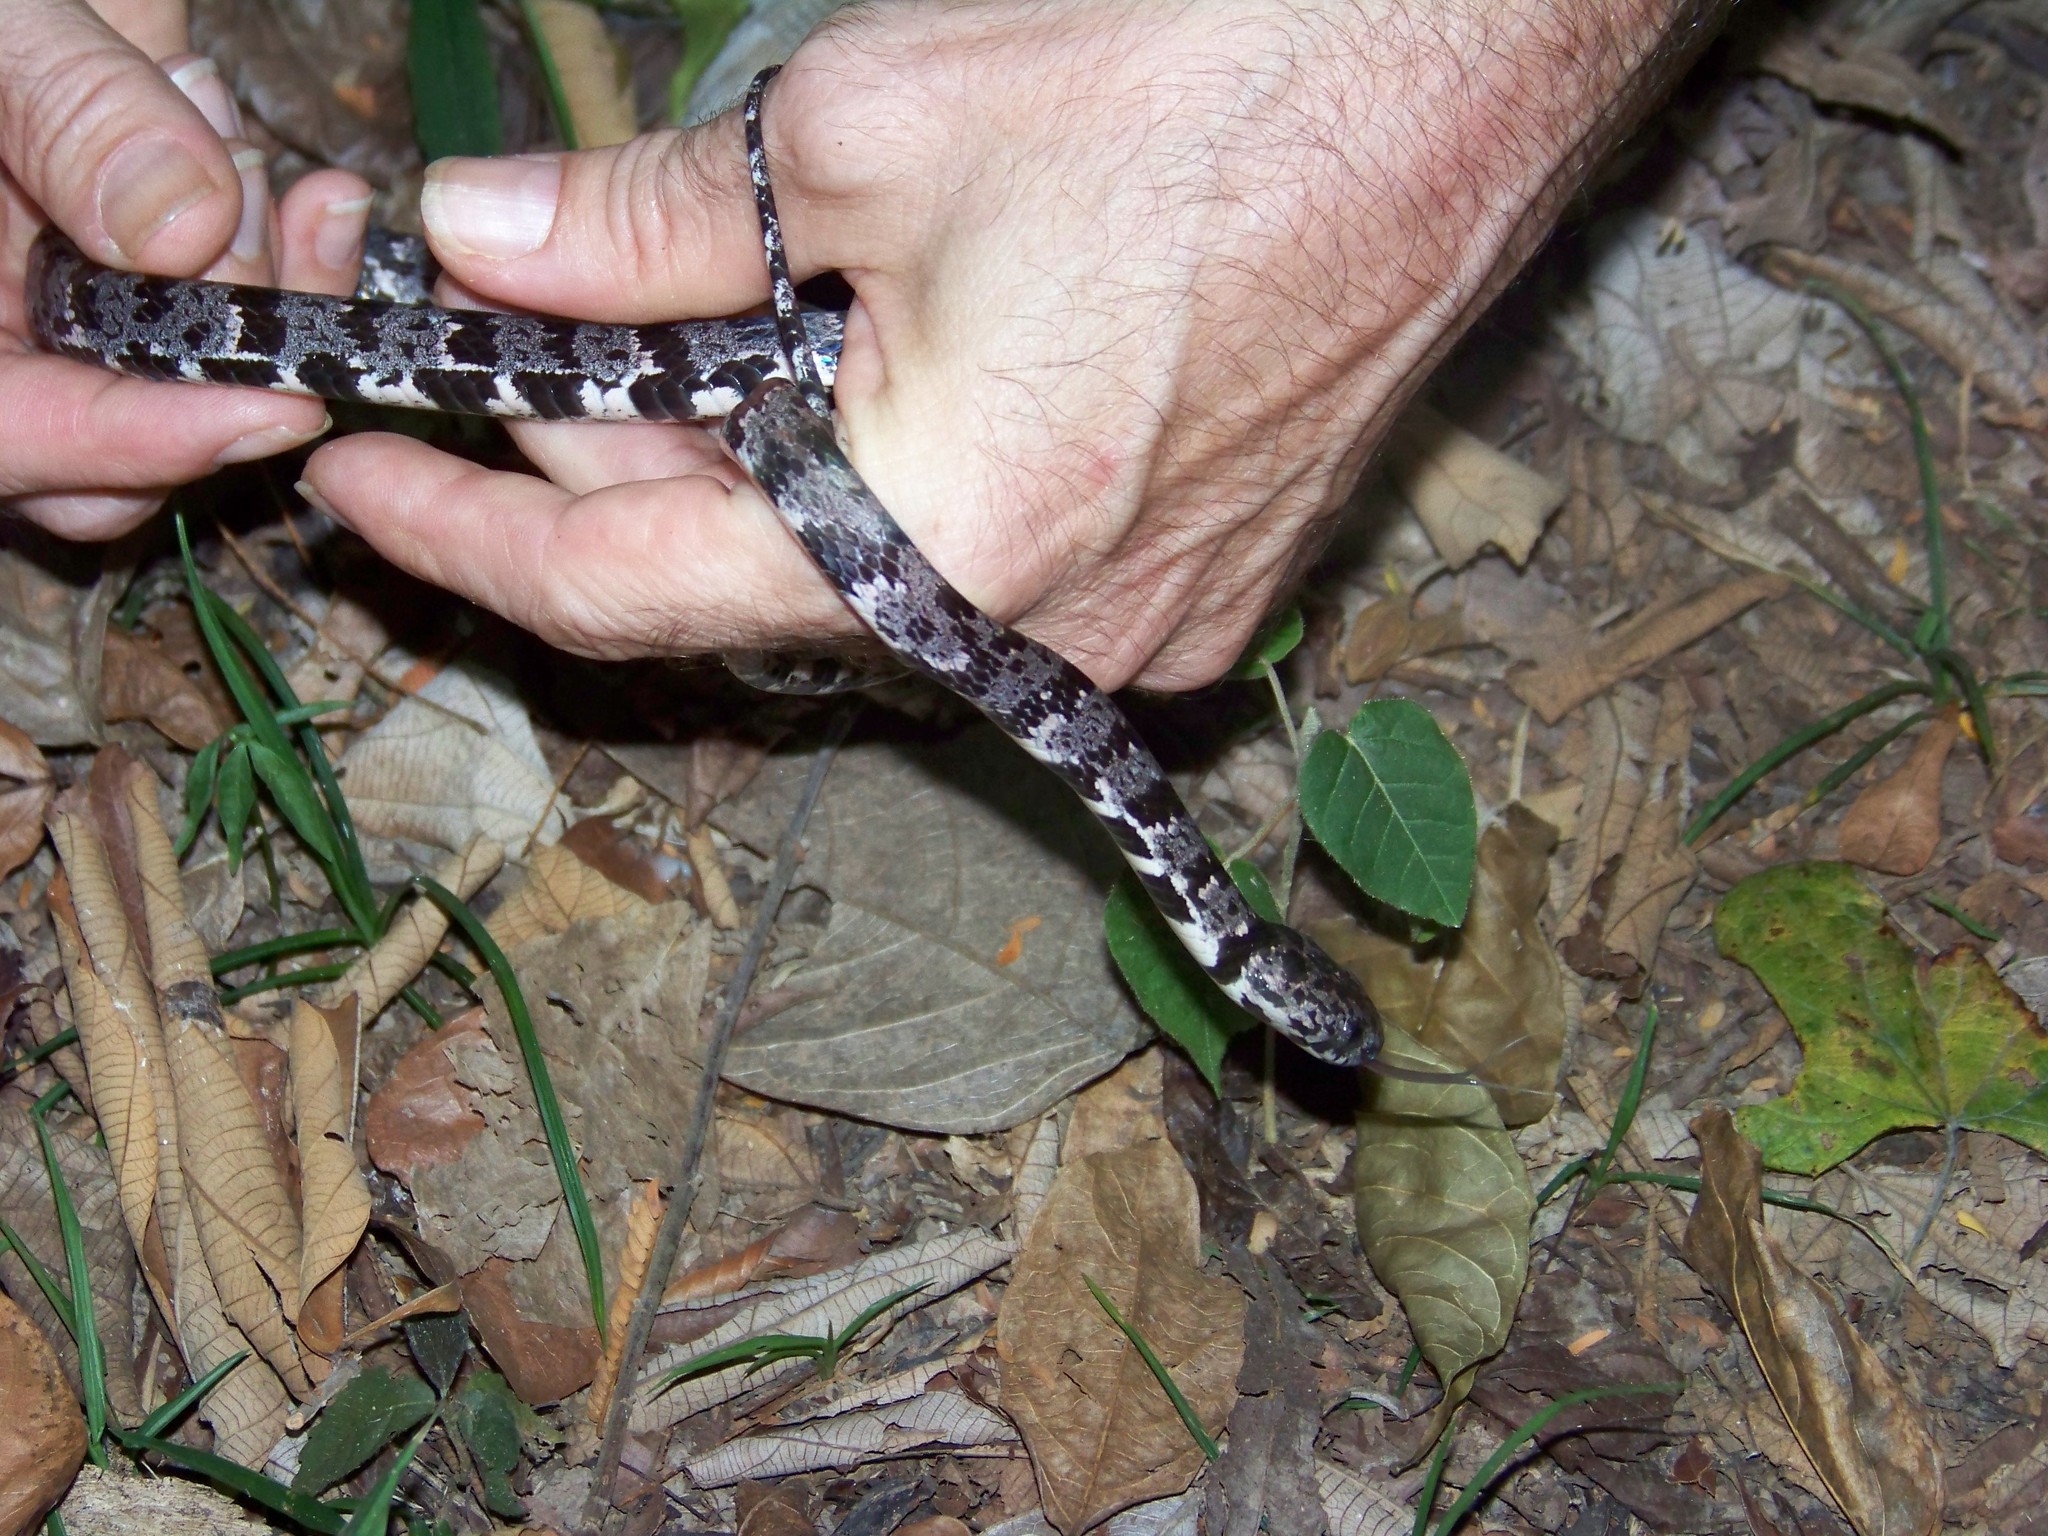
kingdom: Animalia
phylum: Chordata
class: Squamata
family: Colubridae
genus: Sibon
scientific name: Sibon nebulatus
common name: Cloudy snail-eating snake
